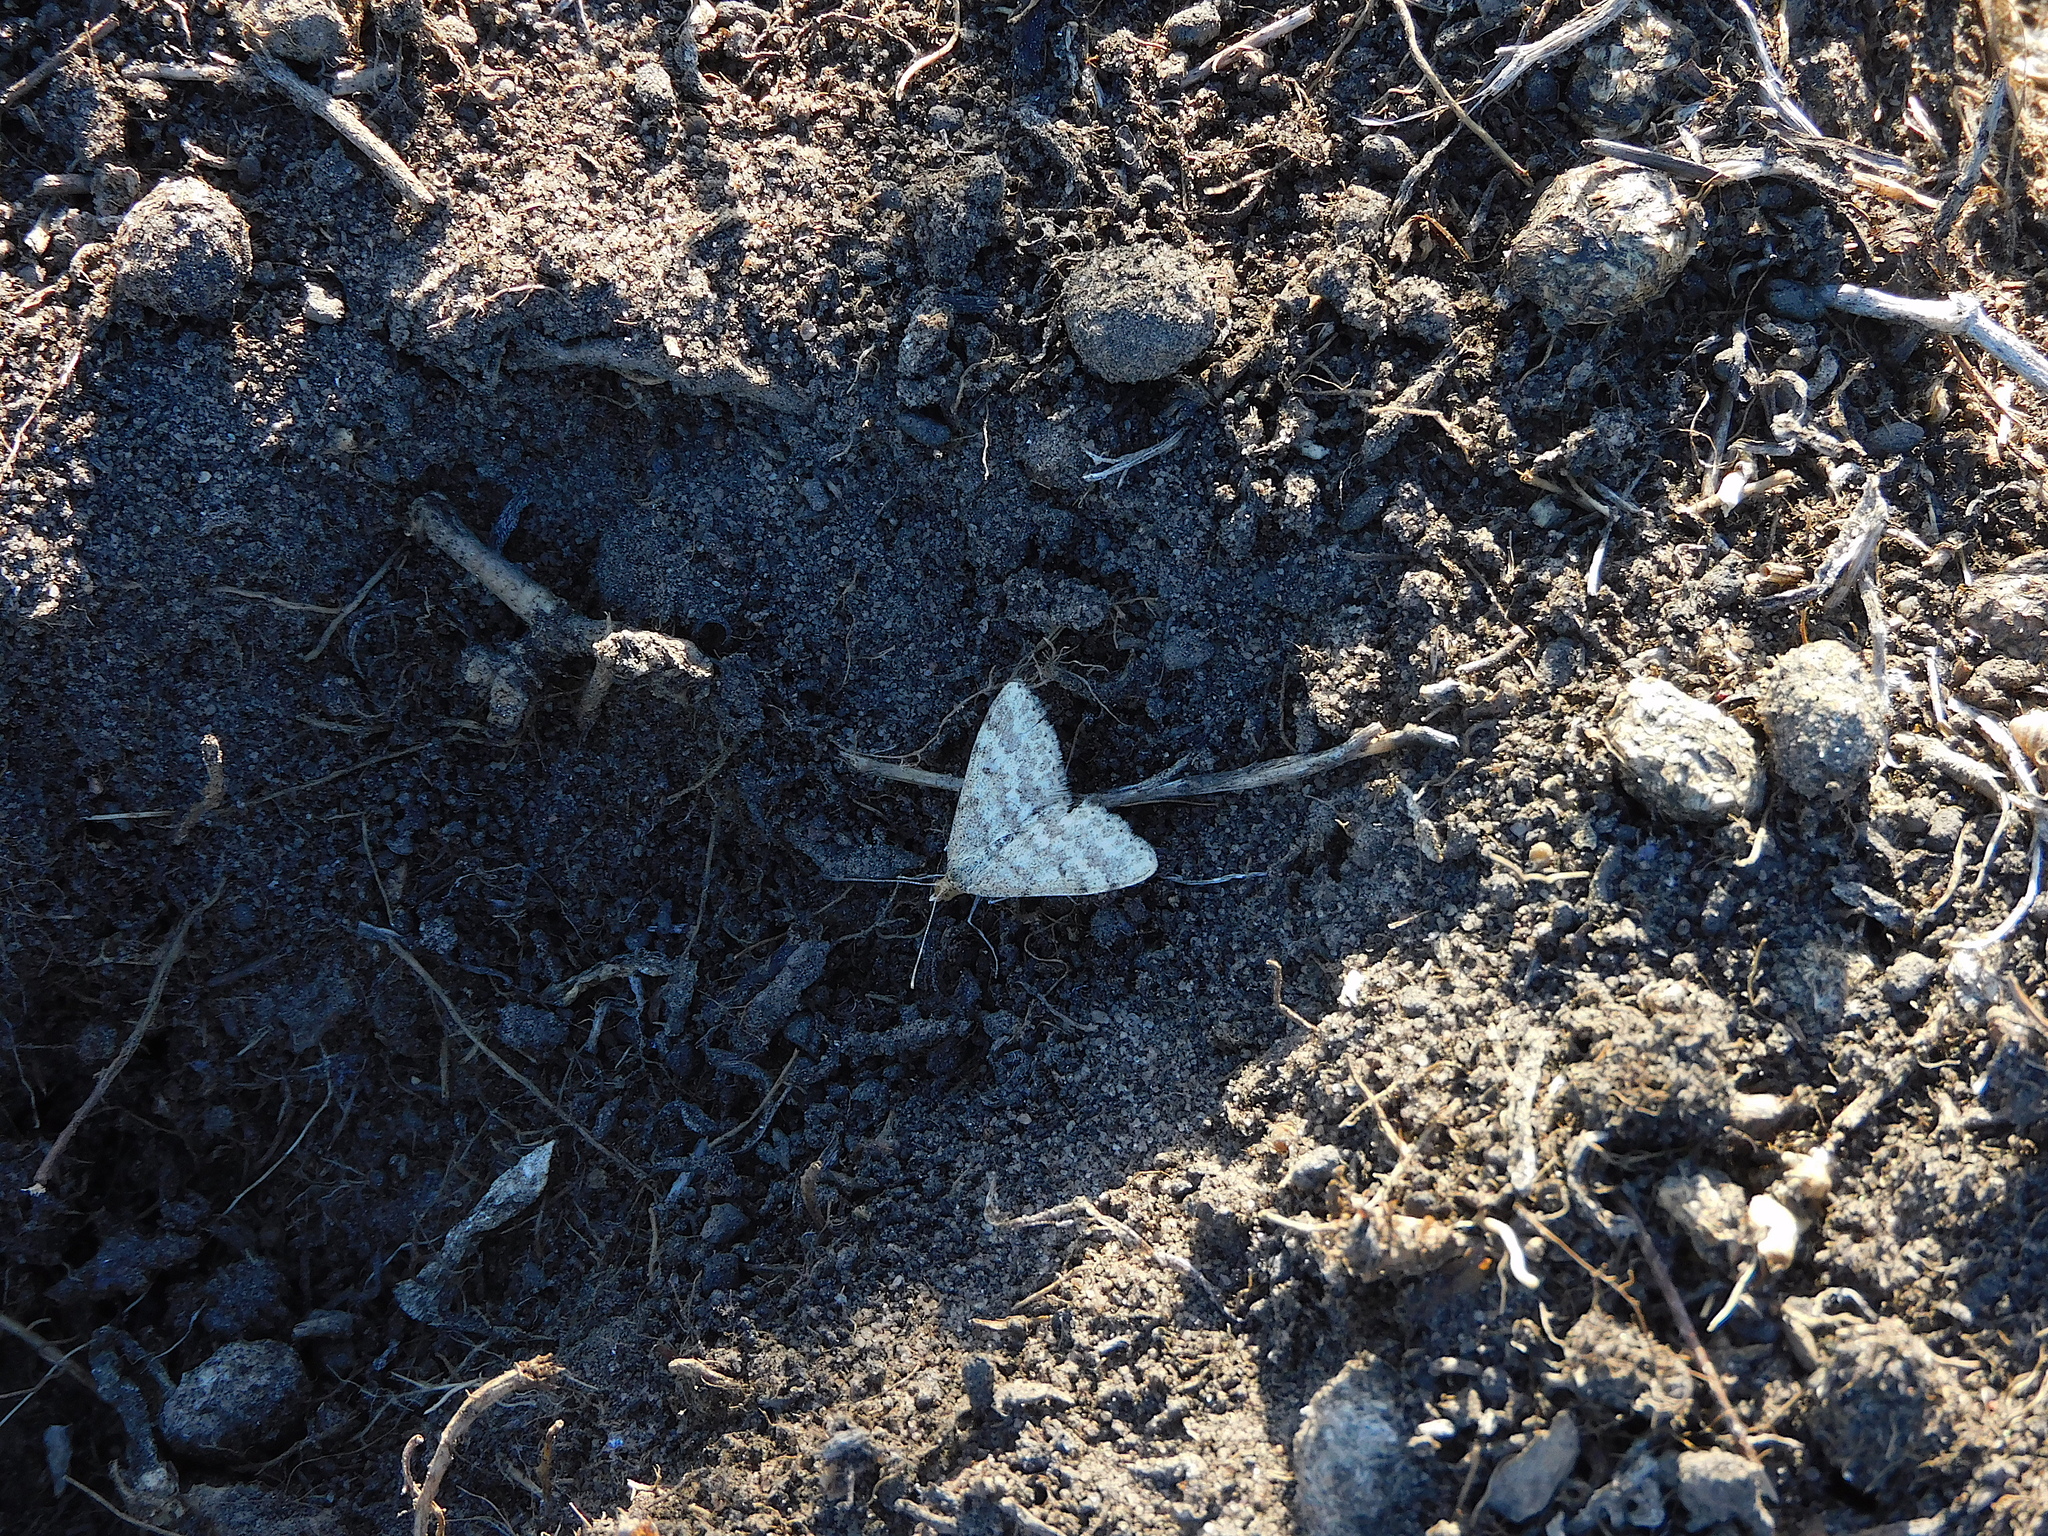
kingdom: Animalia
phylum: Arthropoda
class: Insecta
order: Lepidoptera
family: Geometridae
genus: Scopula
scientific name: Scopula rubraria
